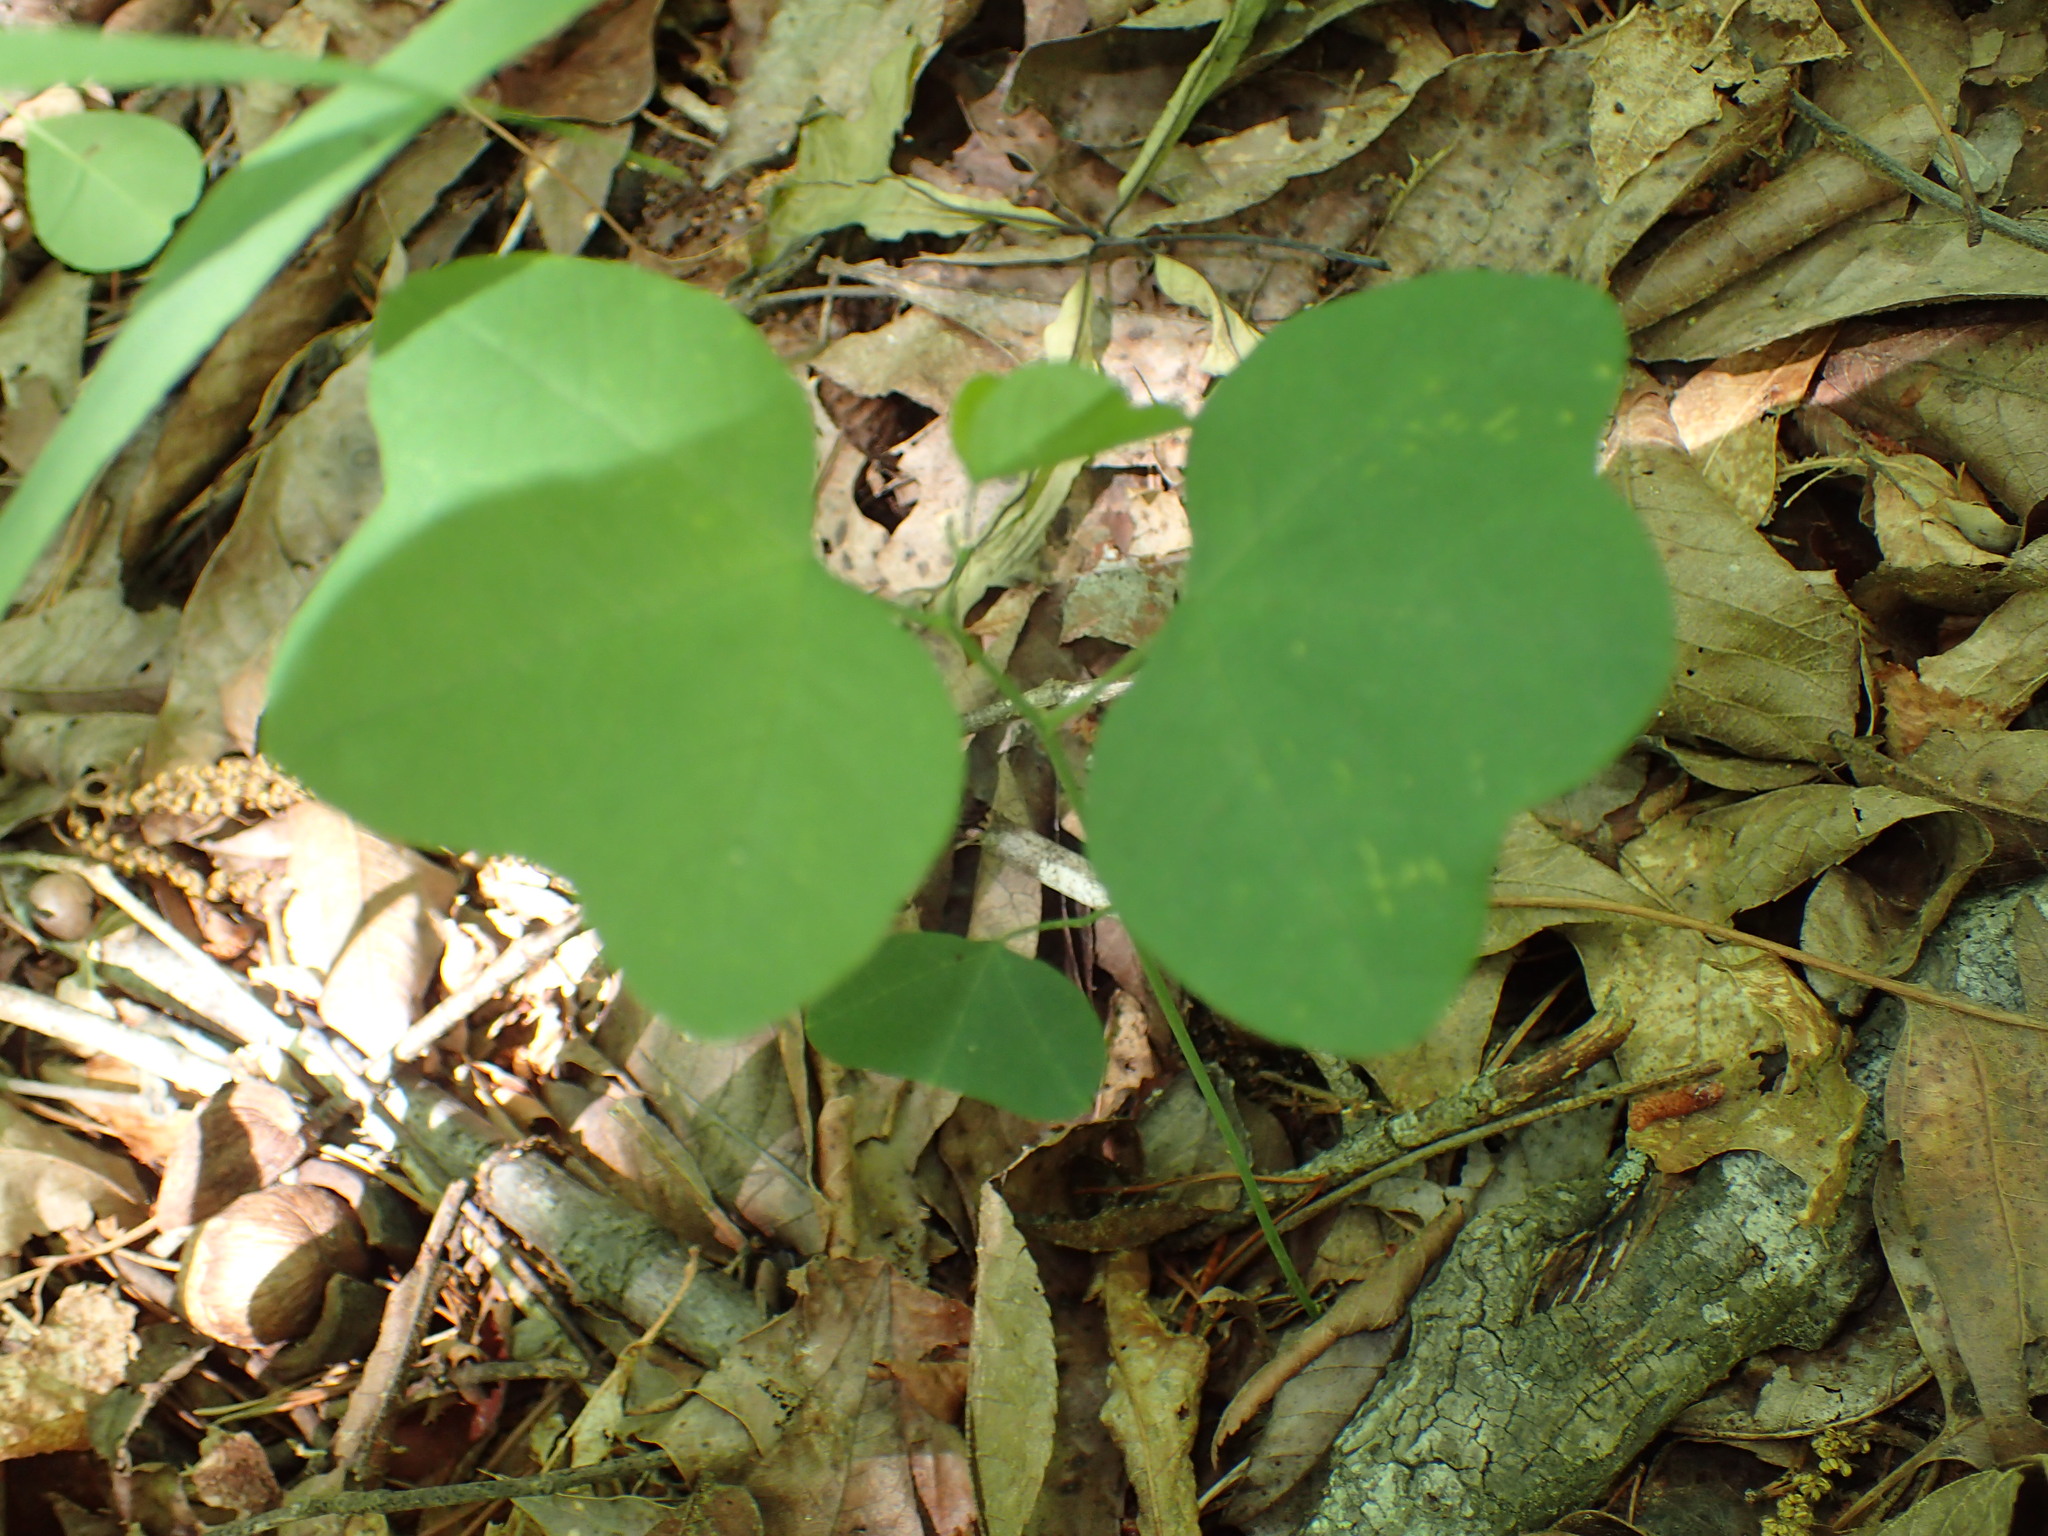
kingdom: Plantae
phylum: Tracheophyta
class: Magnoliopsida
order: Malpighiales
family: Passifloraceae
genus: Passiflora
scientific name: Passiflora lutea
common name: Yellow passionflower
